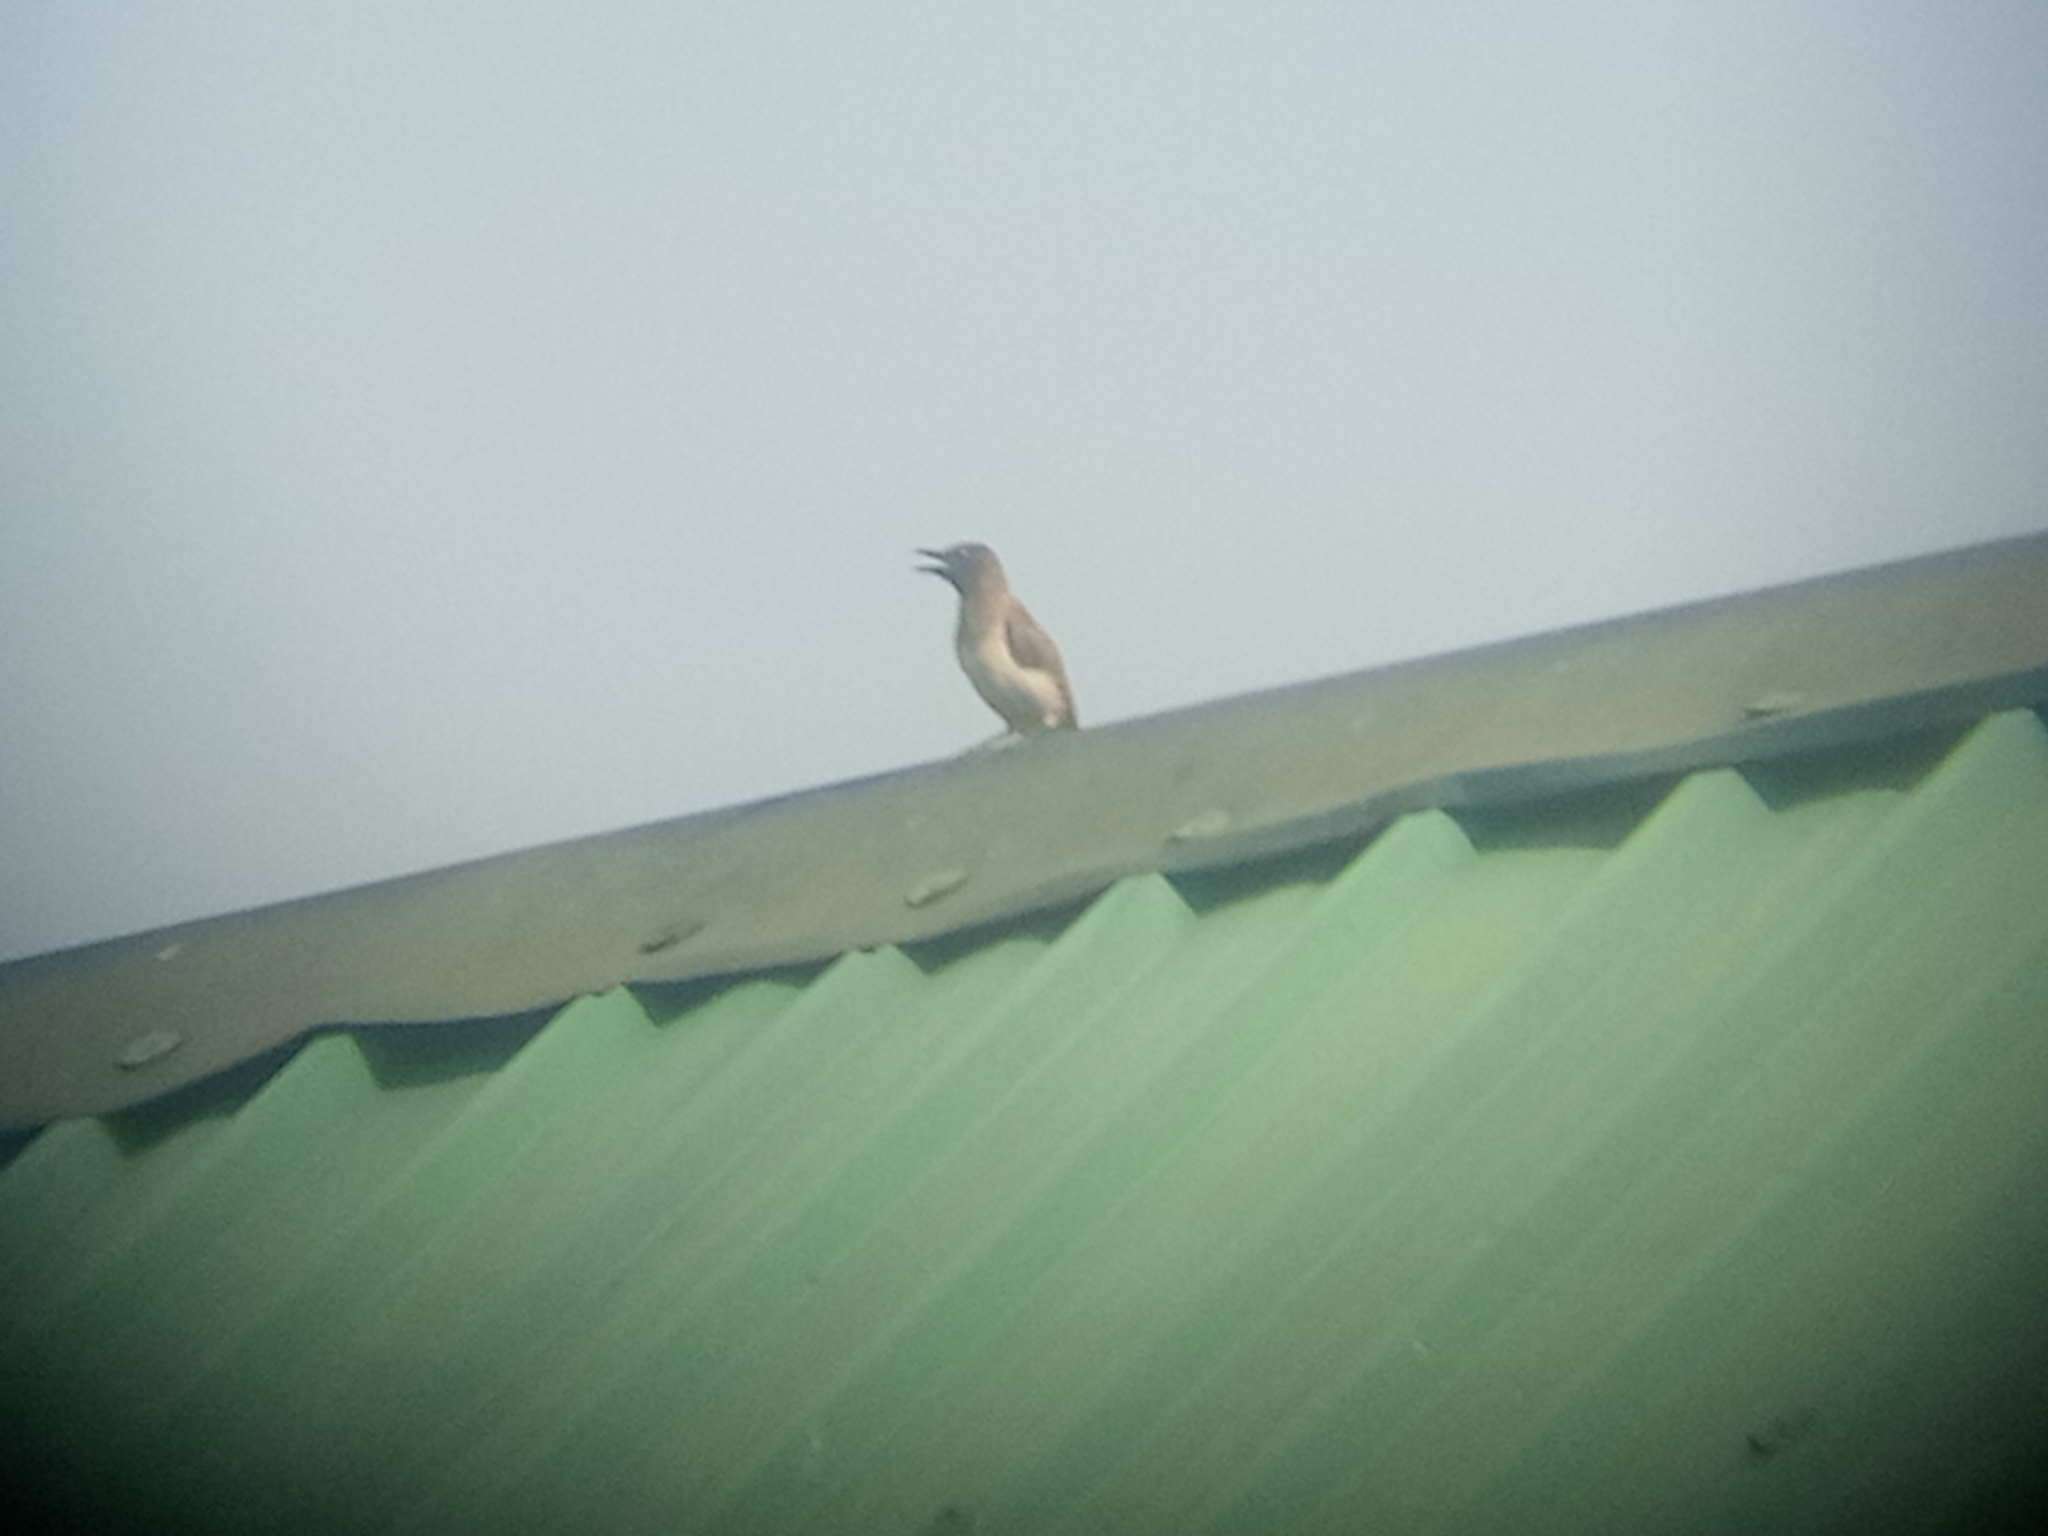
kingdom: Animalia
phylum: Chordata
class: Aves
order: Passeriformes
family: Pycnonotidae
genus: Pycnonotus
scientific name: Pycnonotus barbatus
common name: Common bulbul
